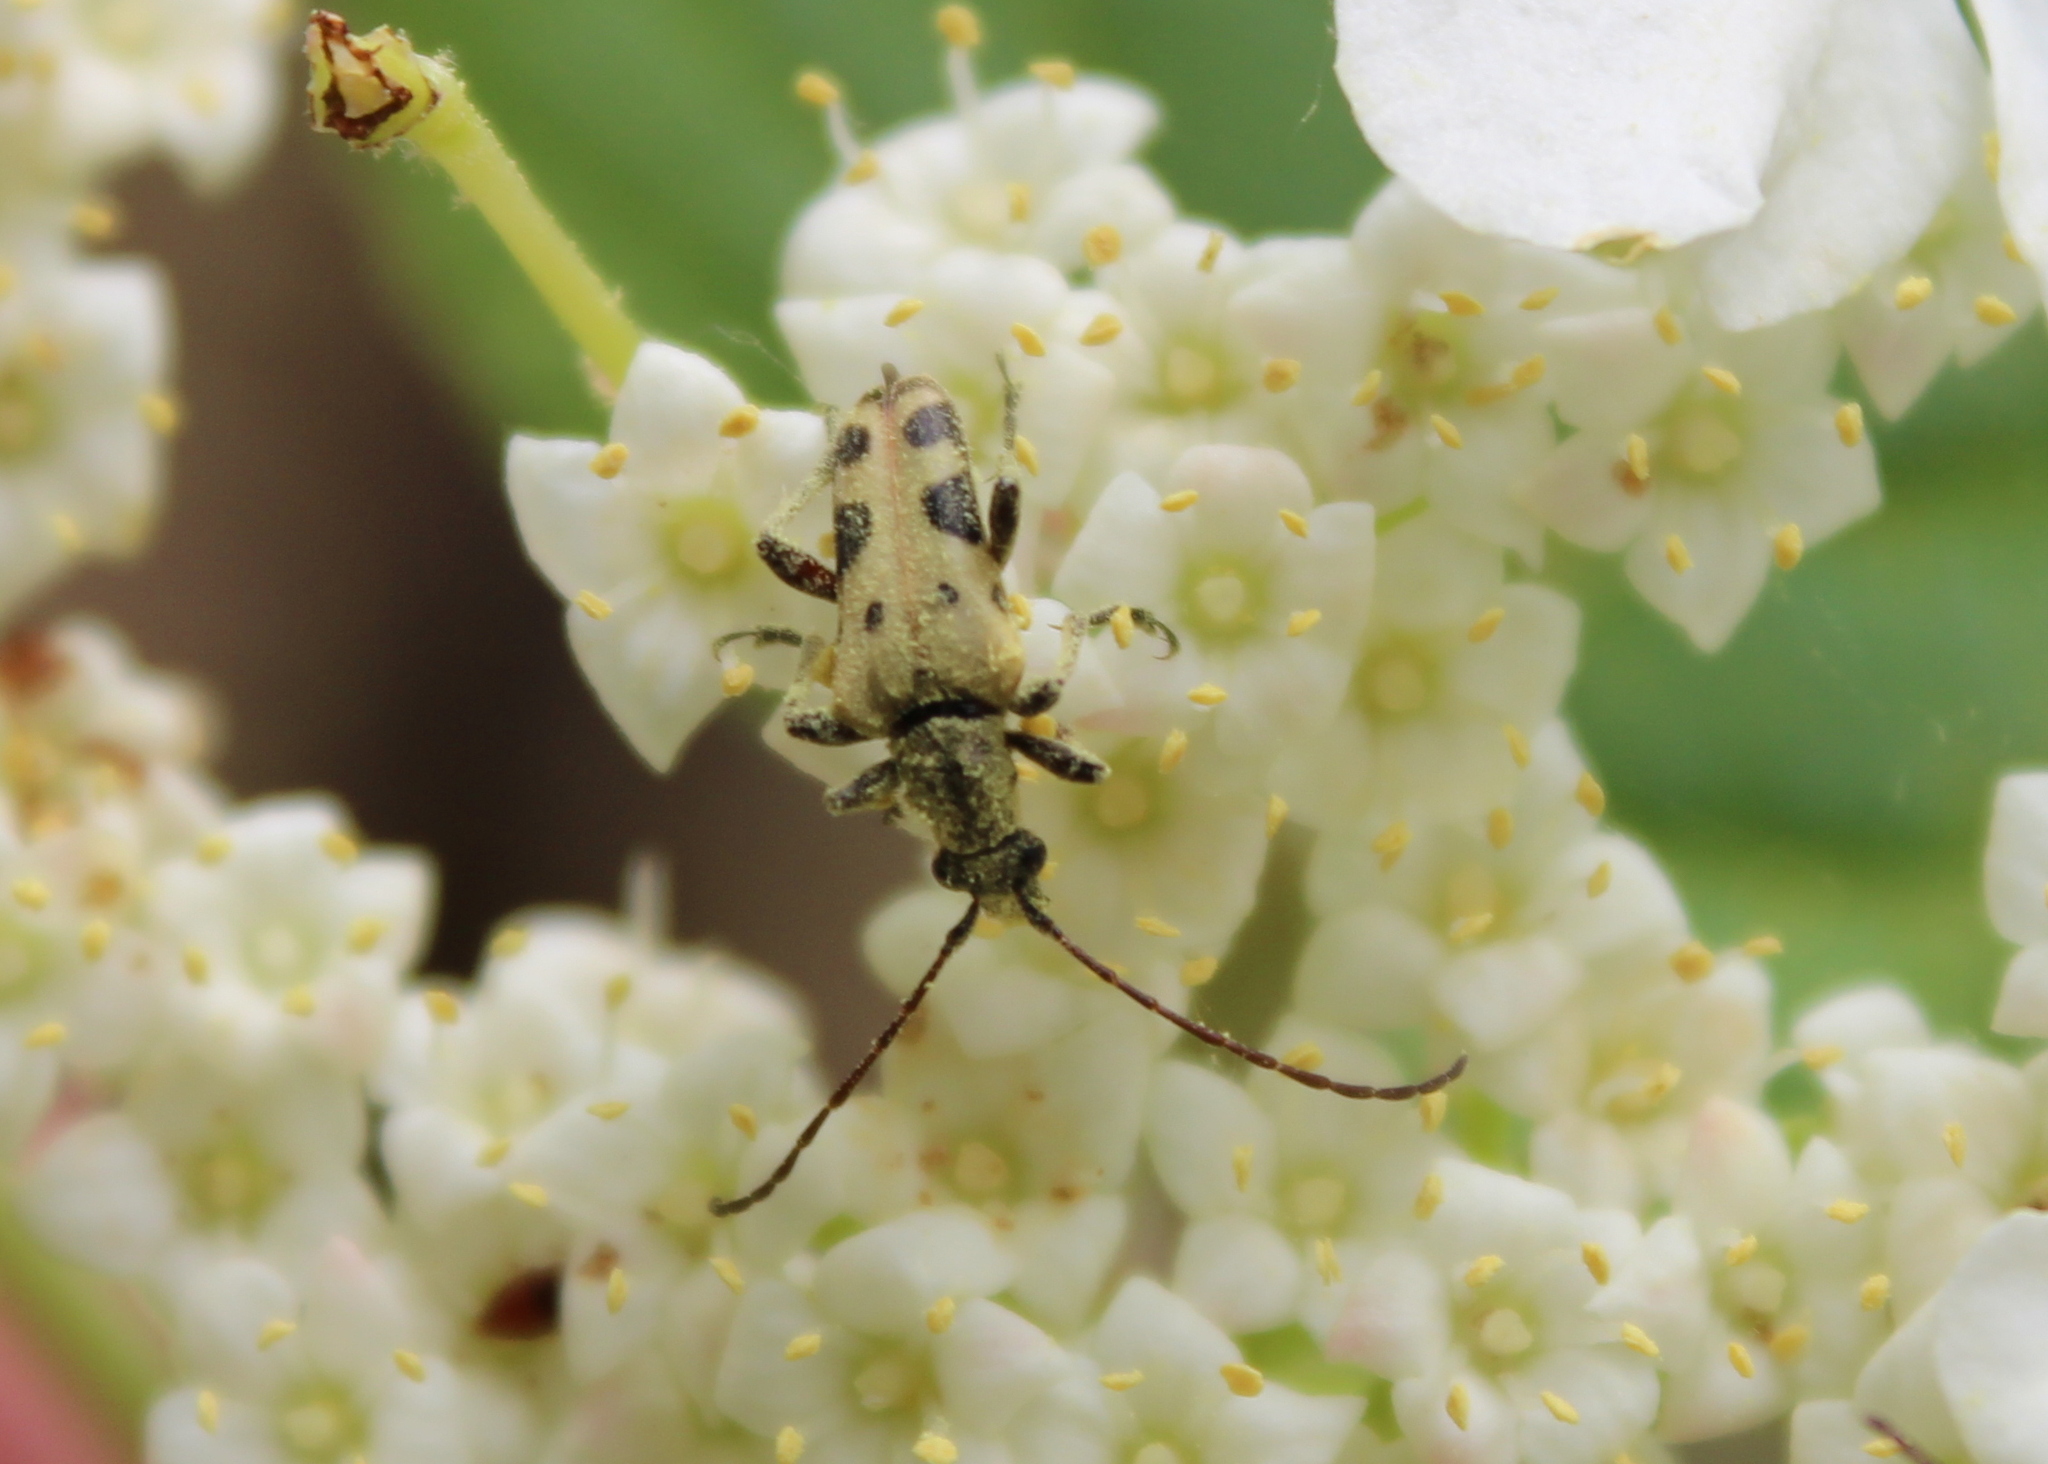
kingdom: Animalia
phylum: Arthropoda
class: Insecta
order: Coleoptera
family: Cerambycidae
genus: Evodinus
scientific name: Evodinus monticola
